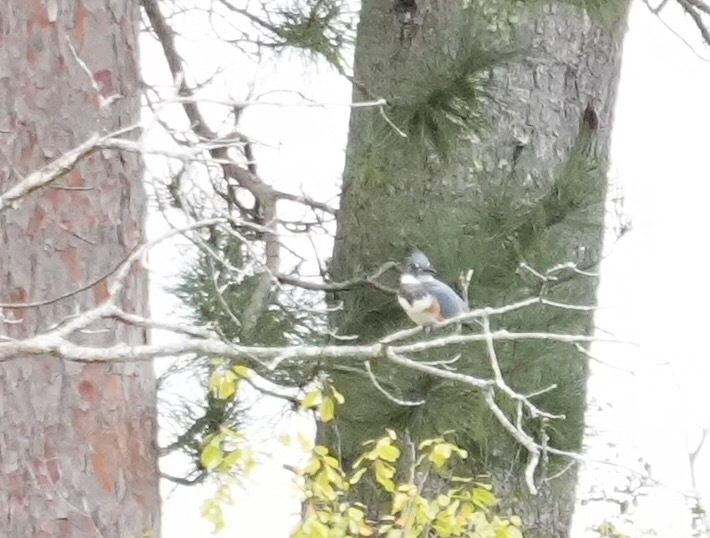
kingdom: Animalia
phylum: Chordata
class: Aves
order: Coraciiformes
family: Alcedinidae
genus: Megaceryle
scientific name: Megaceryle alcyon
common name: Belted kingfisher
